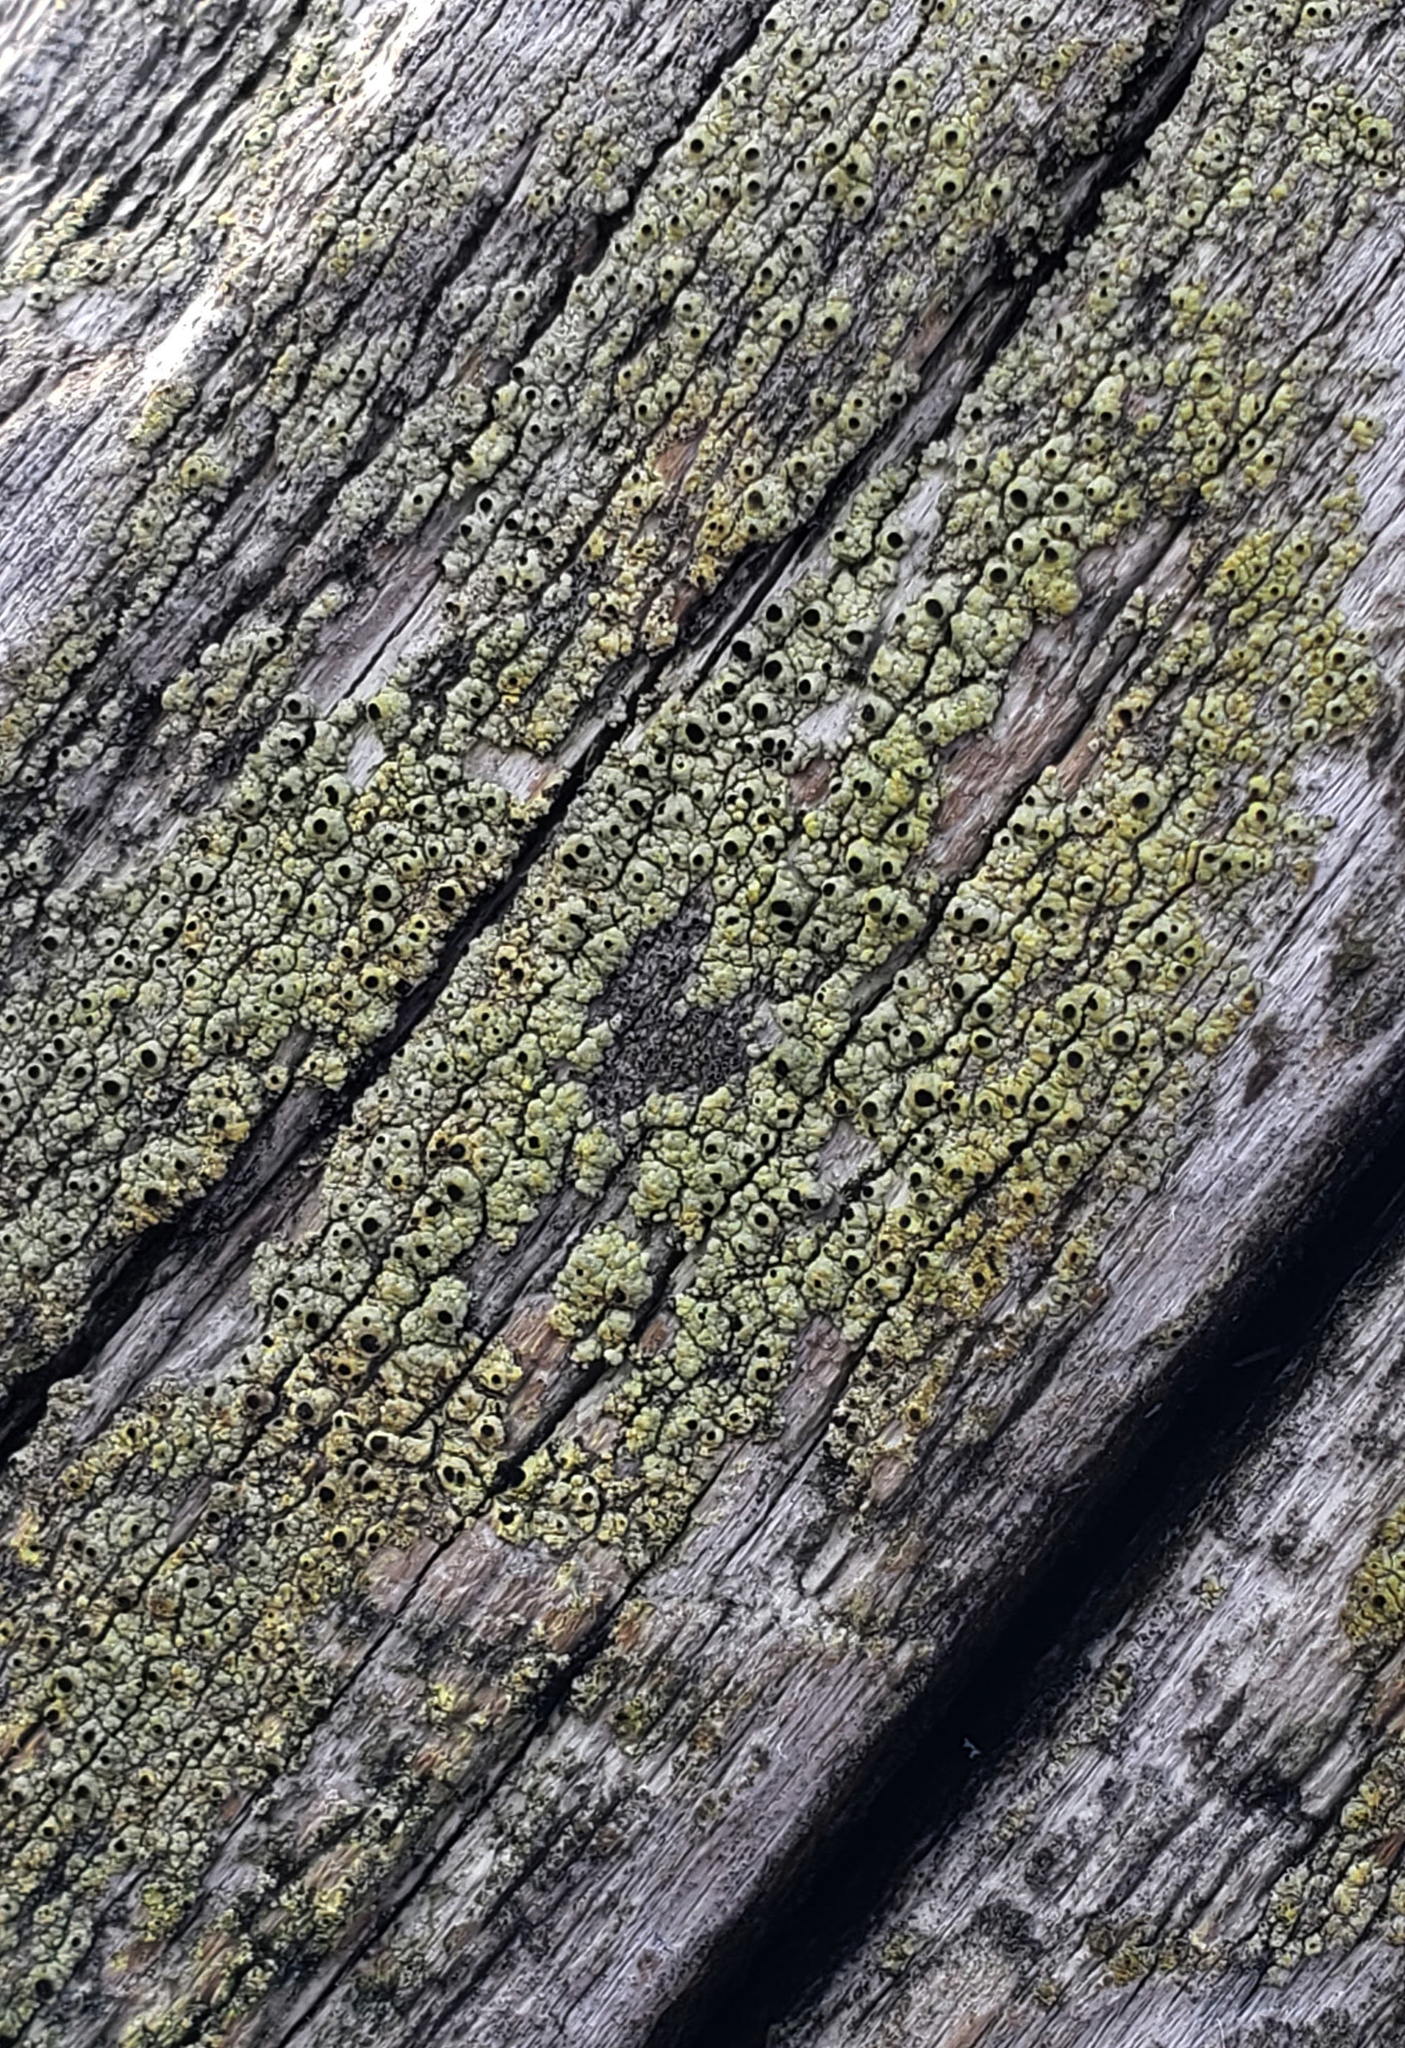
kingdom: Fungi
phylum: Ascomycota
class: Lecanoromycetes
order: Caliciales
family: Caliciaceae
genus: Calicium
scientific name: Calicium tigillare
